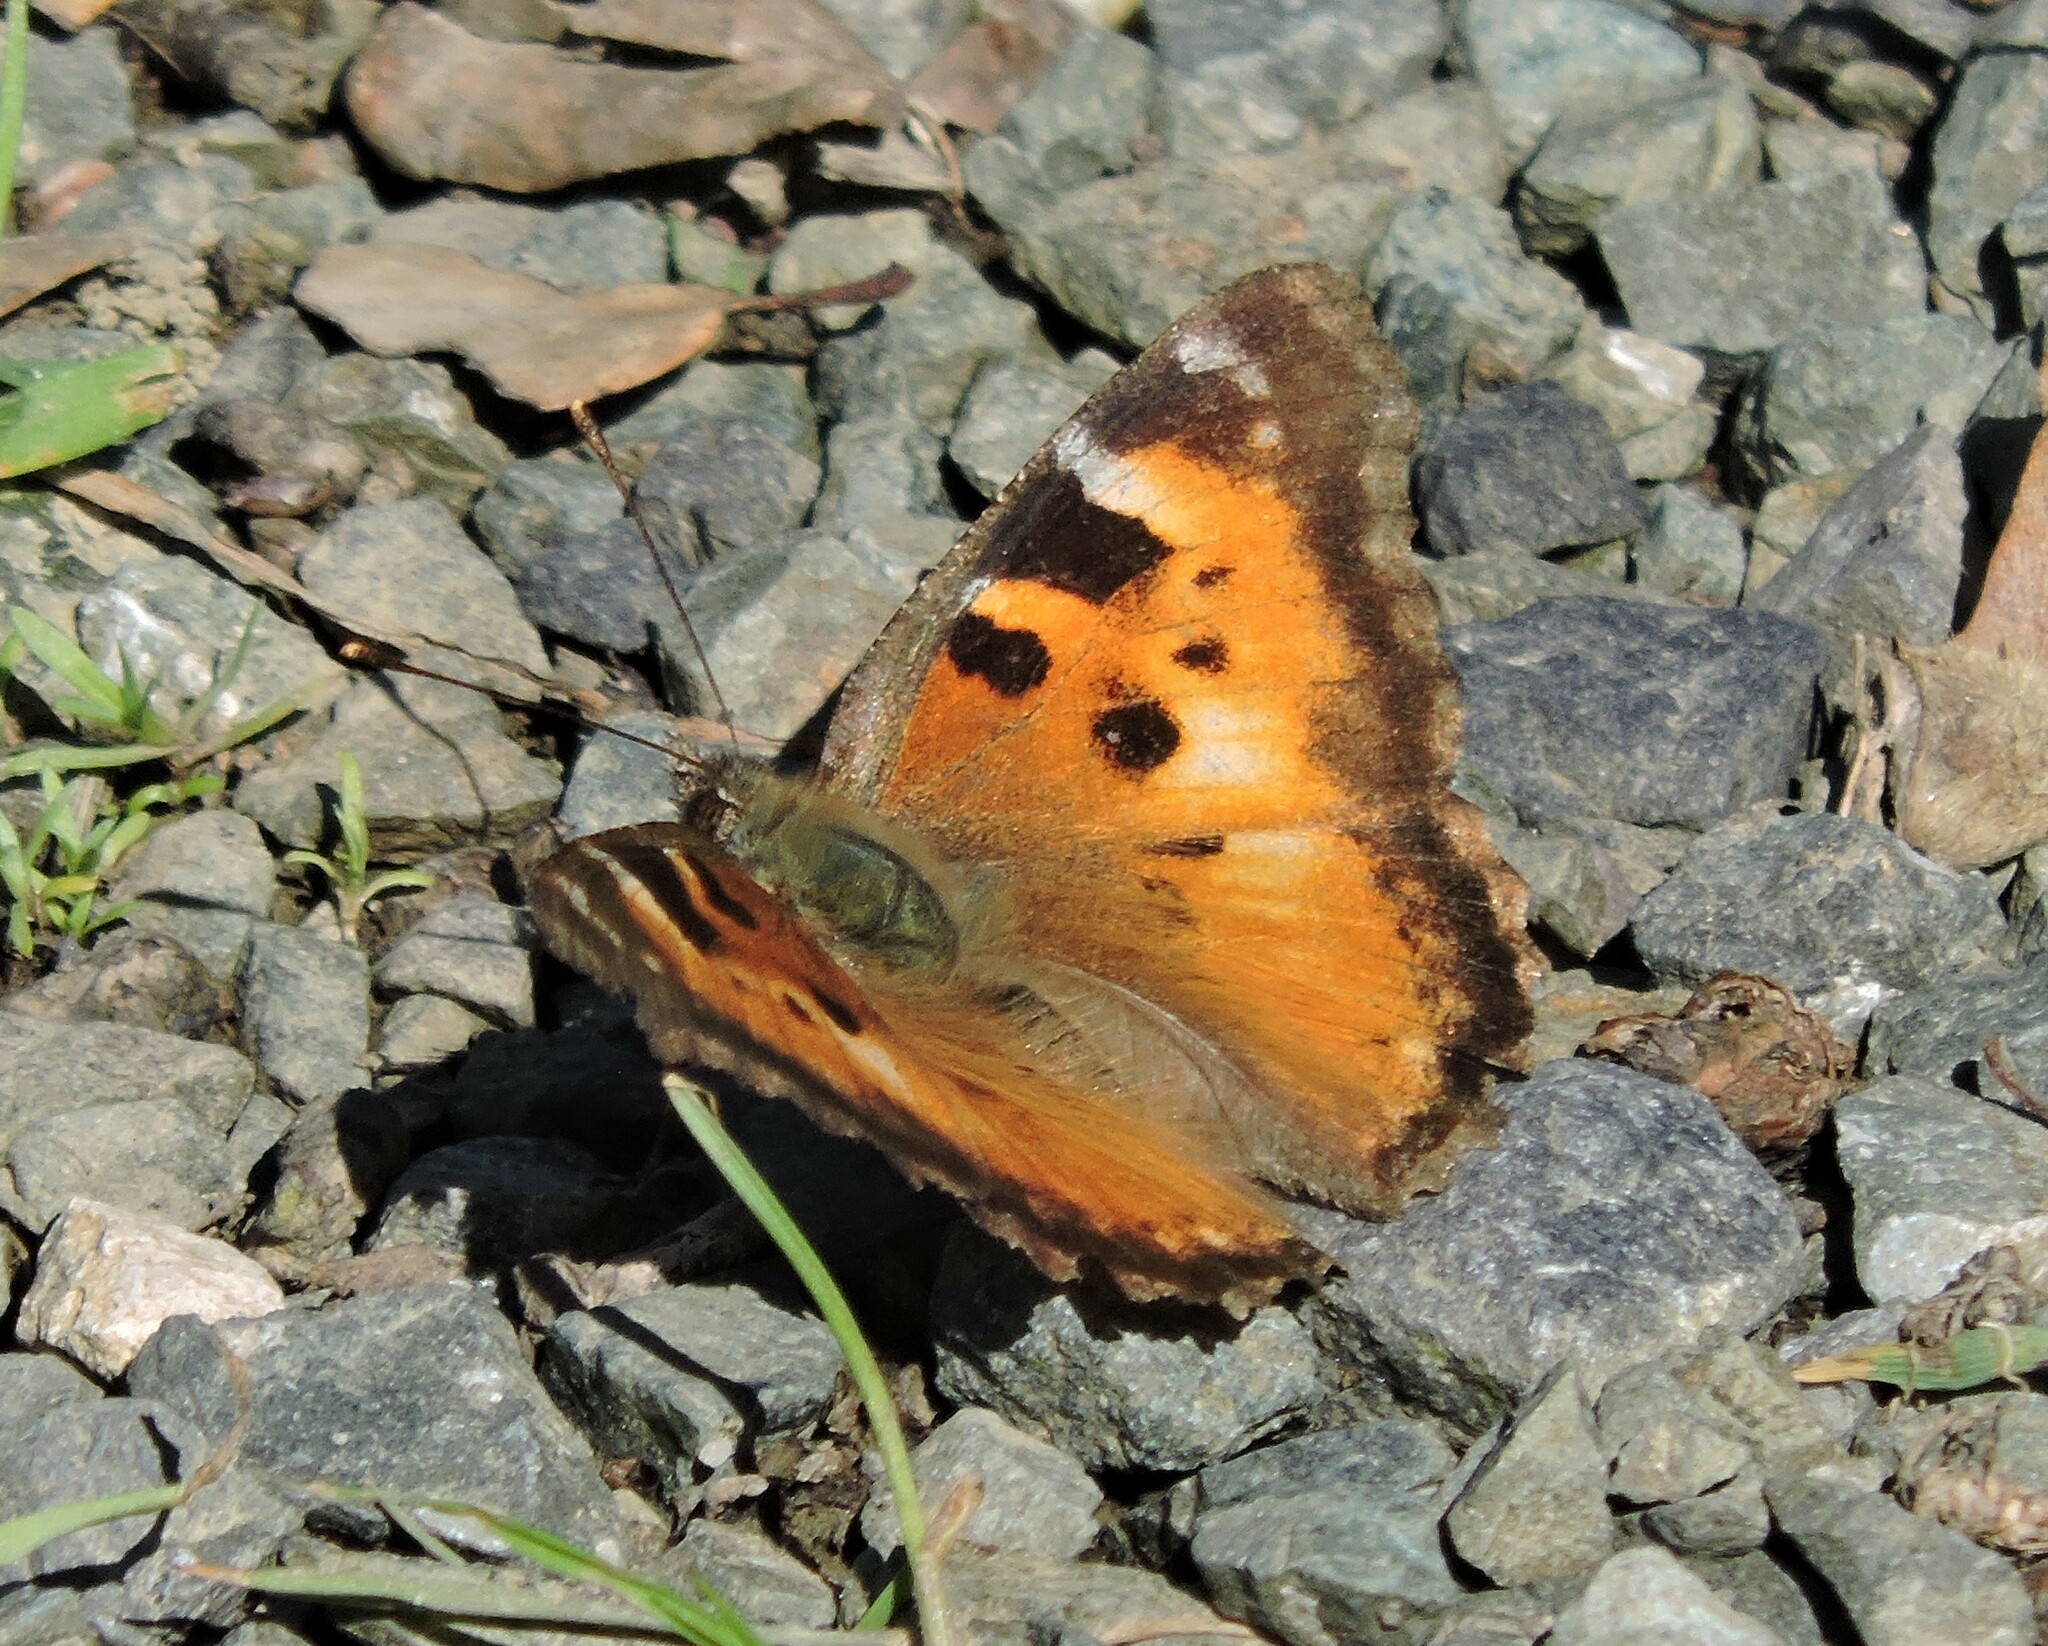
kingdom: Animalia
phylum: Arthropoda
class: Insecta
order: Lepidoptera
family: Nymphalidae
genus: Nymphalis
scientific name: Nymphalis californica
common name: California tortoiseshell
